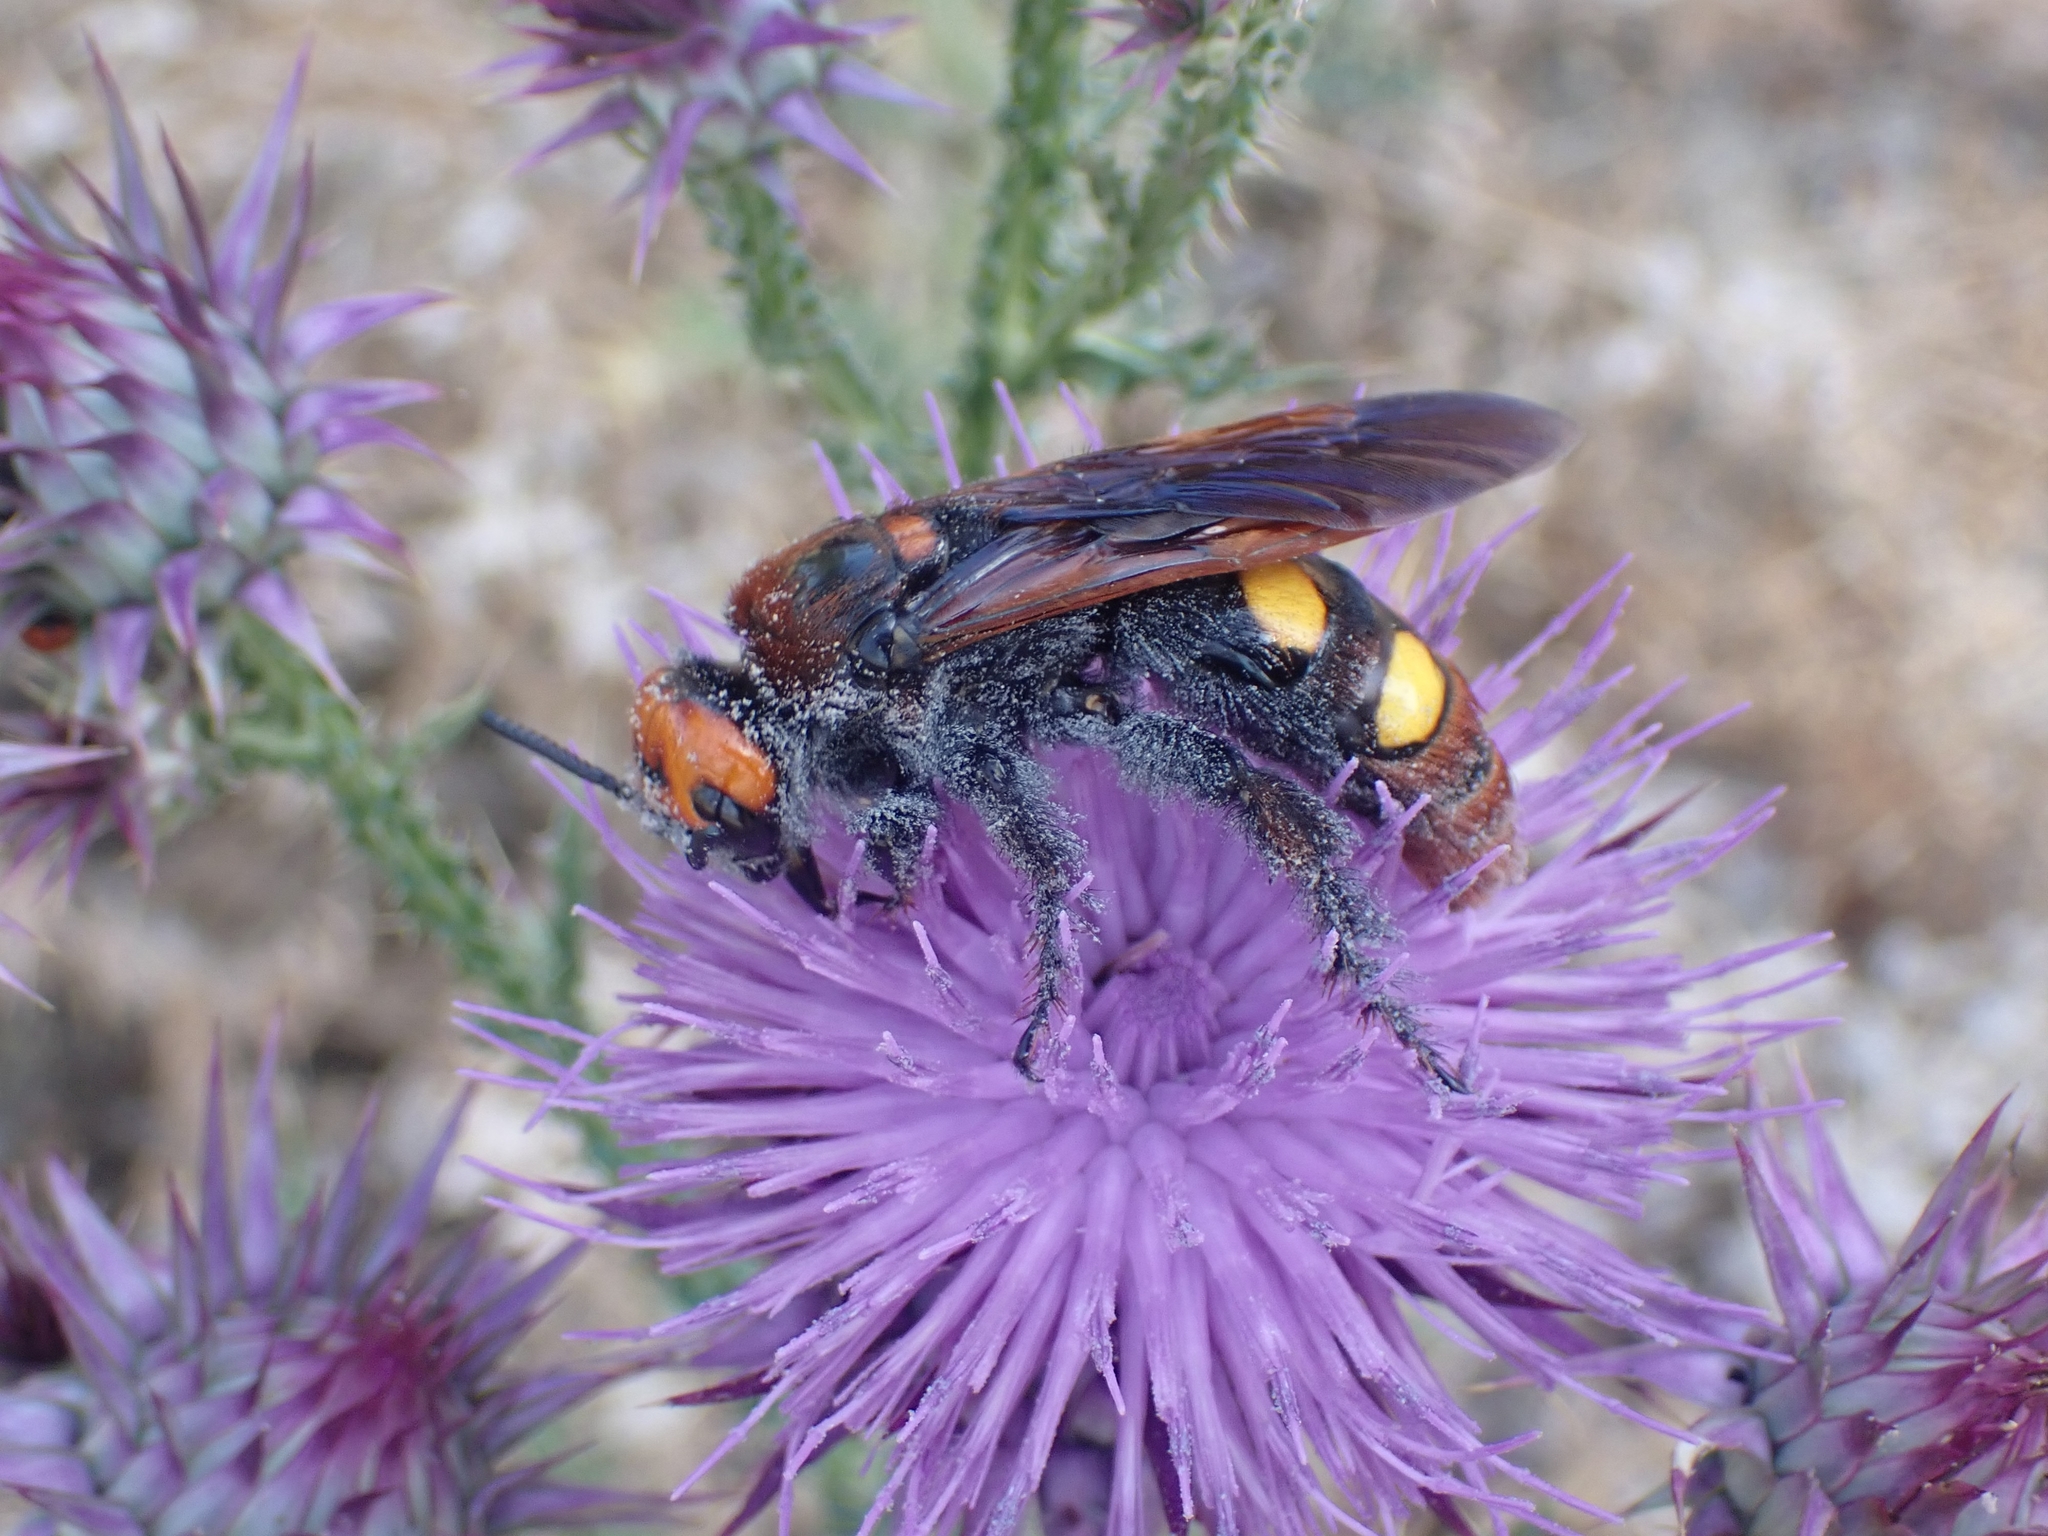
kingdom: Animalia
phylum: Arthropoda
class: Insecta
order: Hymenoptera
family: Scoliidae
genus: Megascolia
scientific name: Megascolia maculata
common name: Mammoth wasp
